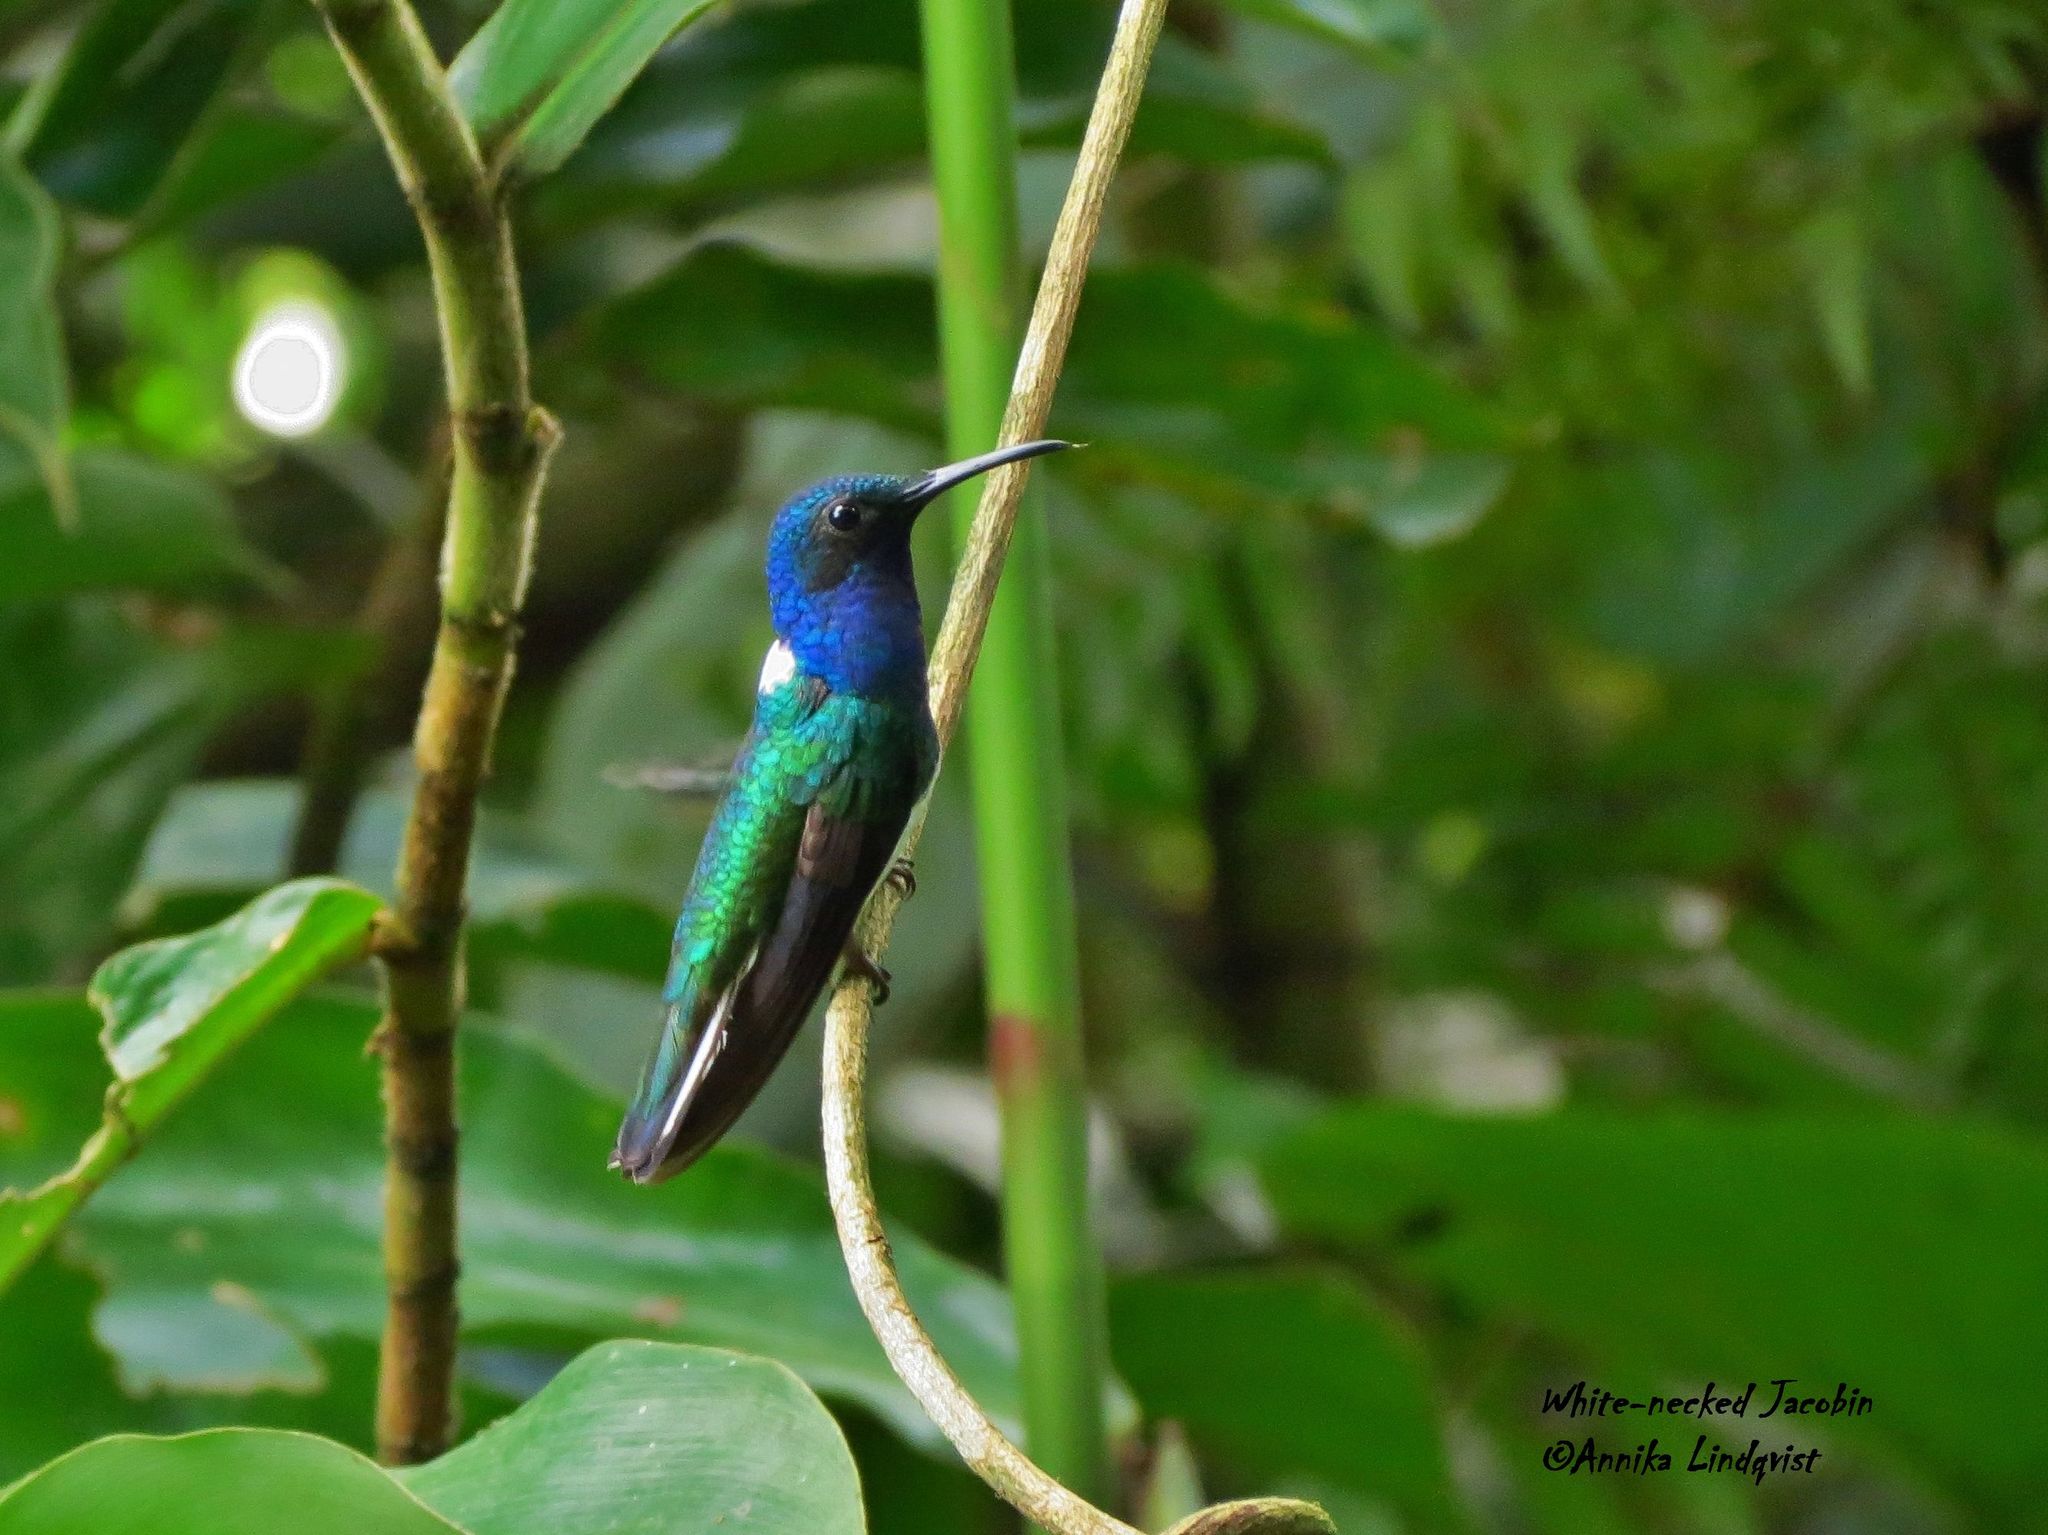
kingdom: Animalia
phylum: Chordata
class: Aves
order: Apodiformes
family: Trochilidae
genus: Florisuga
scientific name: Florisuga mellivora
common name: White-necked jacobin
